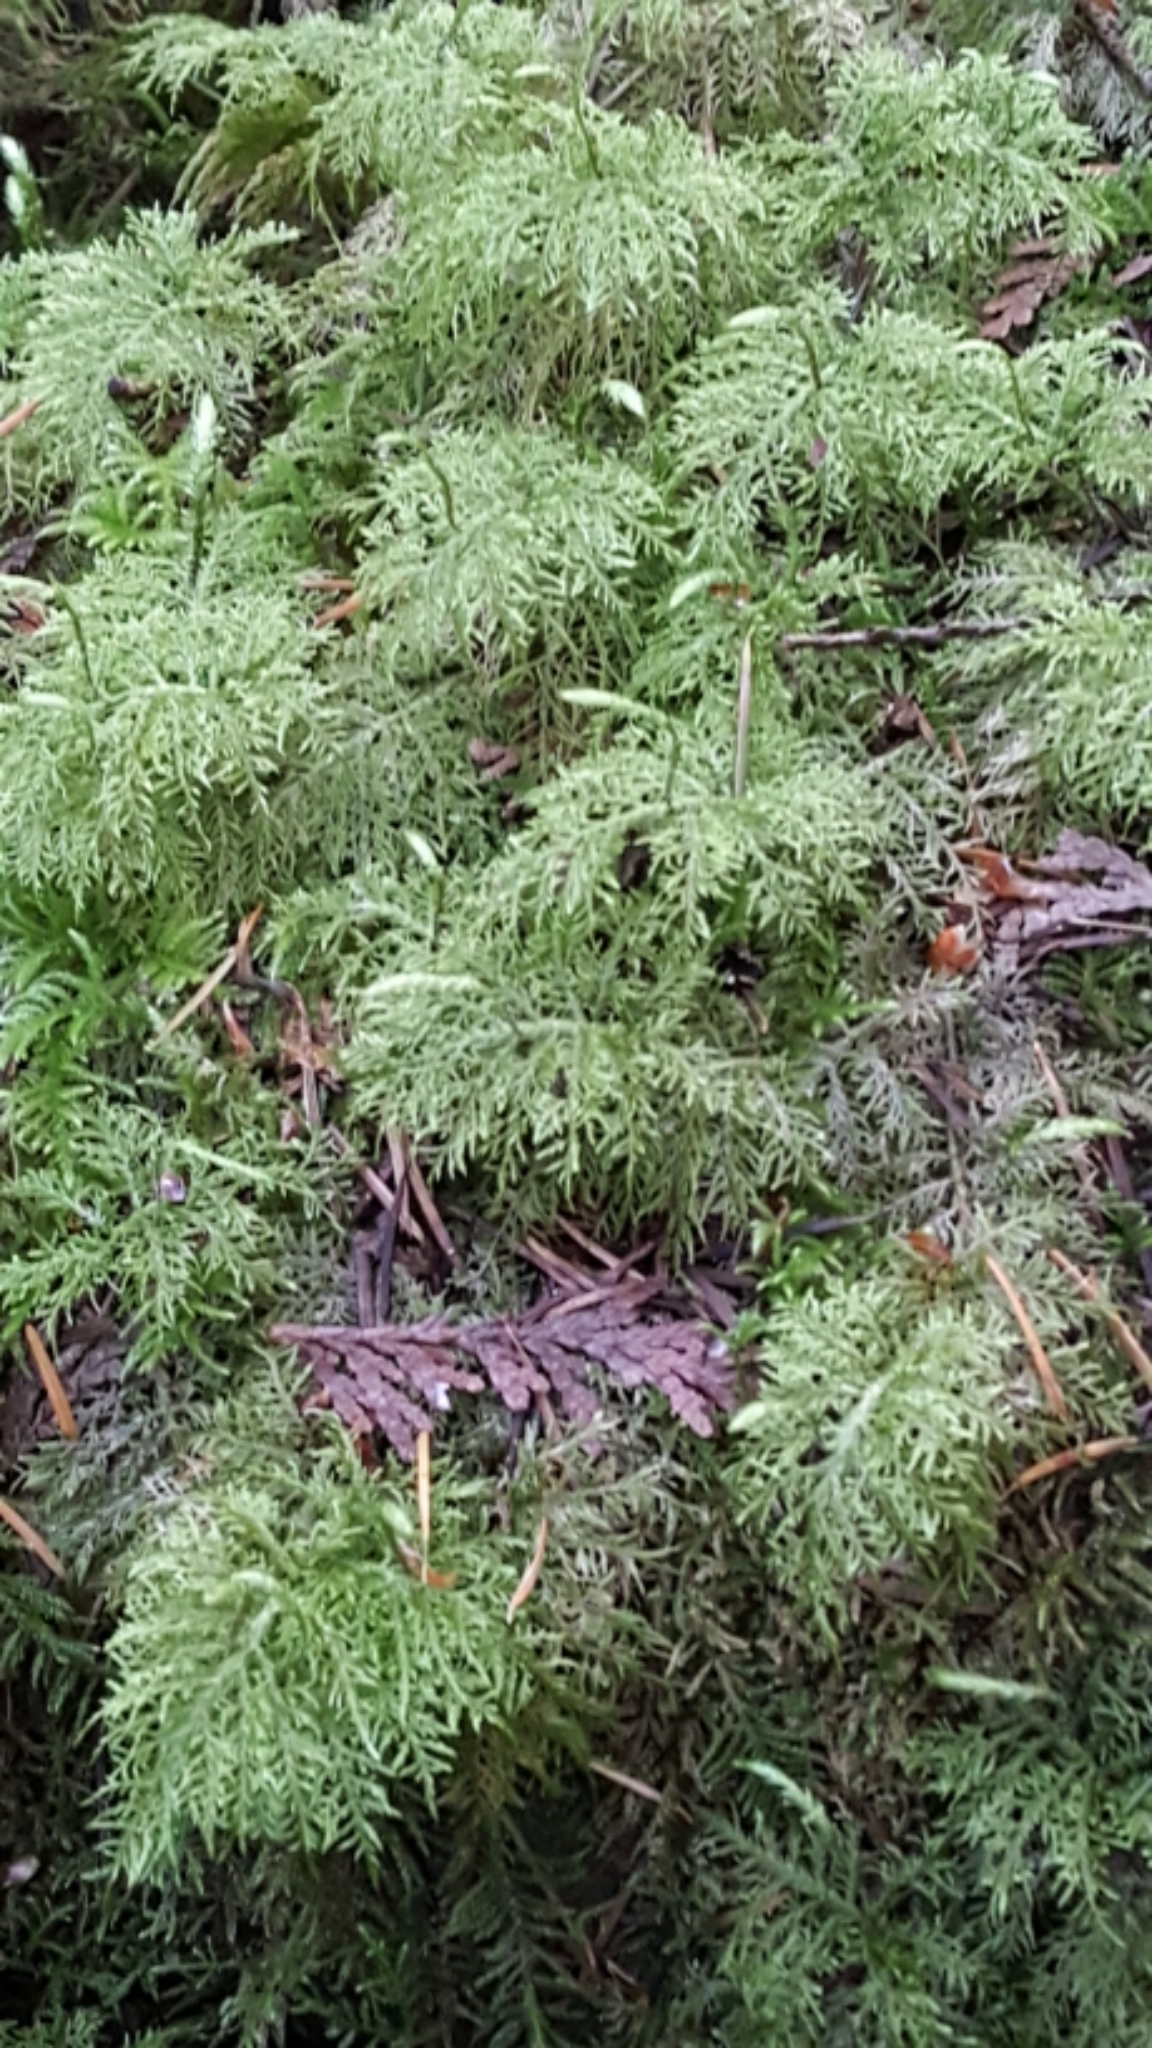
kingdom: Plantae
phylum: Bryophyta
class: Bryopsida
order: Hypnales
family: Hylocomiaceae
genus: Hylocomium
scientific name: Hylocomium splendens
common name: Stairstep moss
